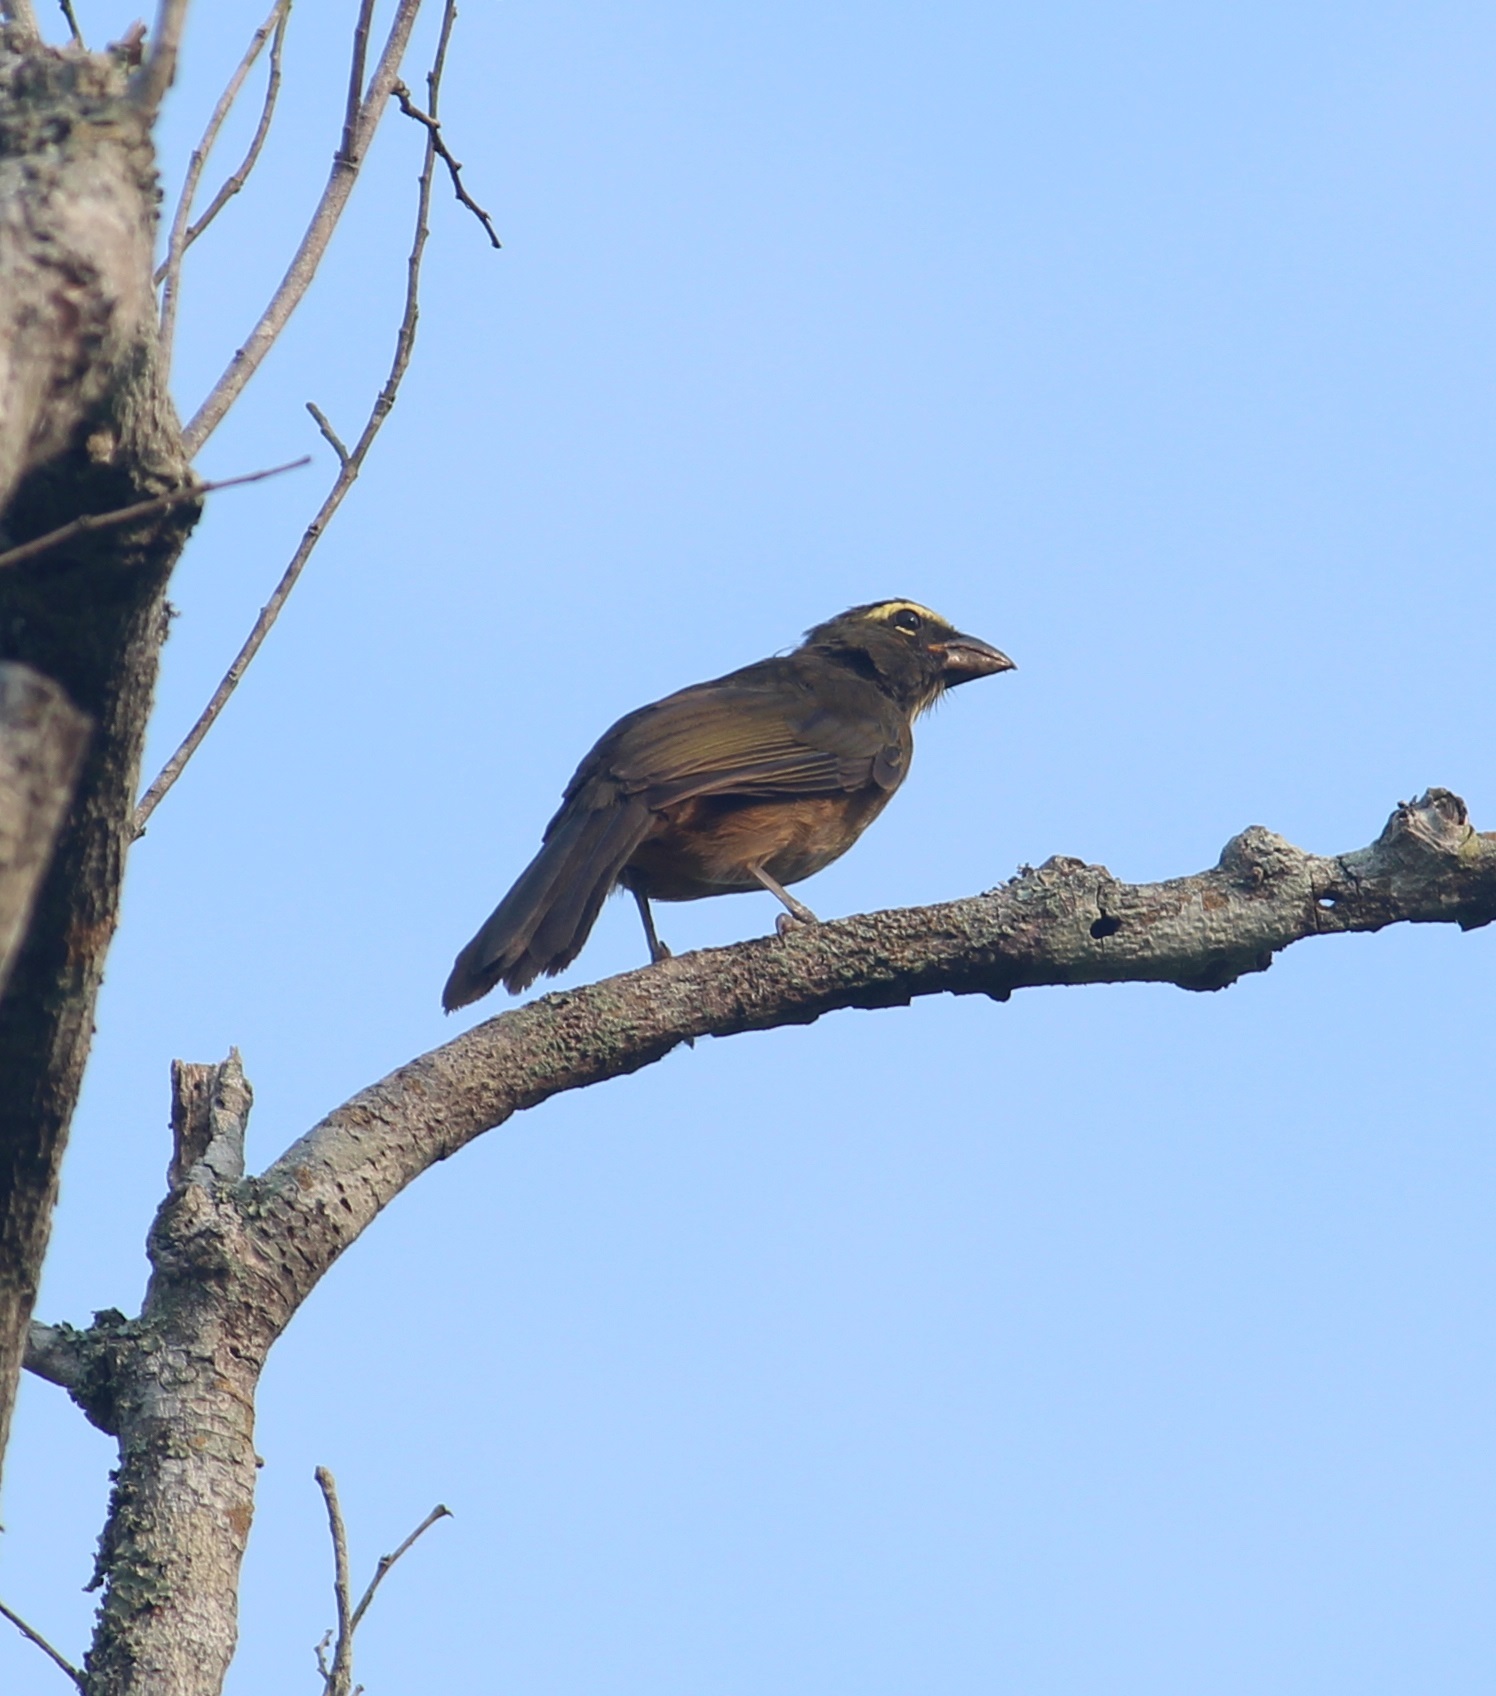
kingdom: Animalia
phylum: Chordata
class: Aves
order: Passeriformes
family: Thraupidae
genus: Saltator
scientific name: Saltator grandis
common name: Cinnamon-bellied saltator
